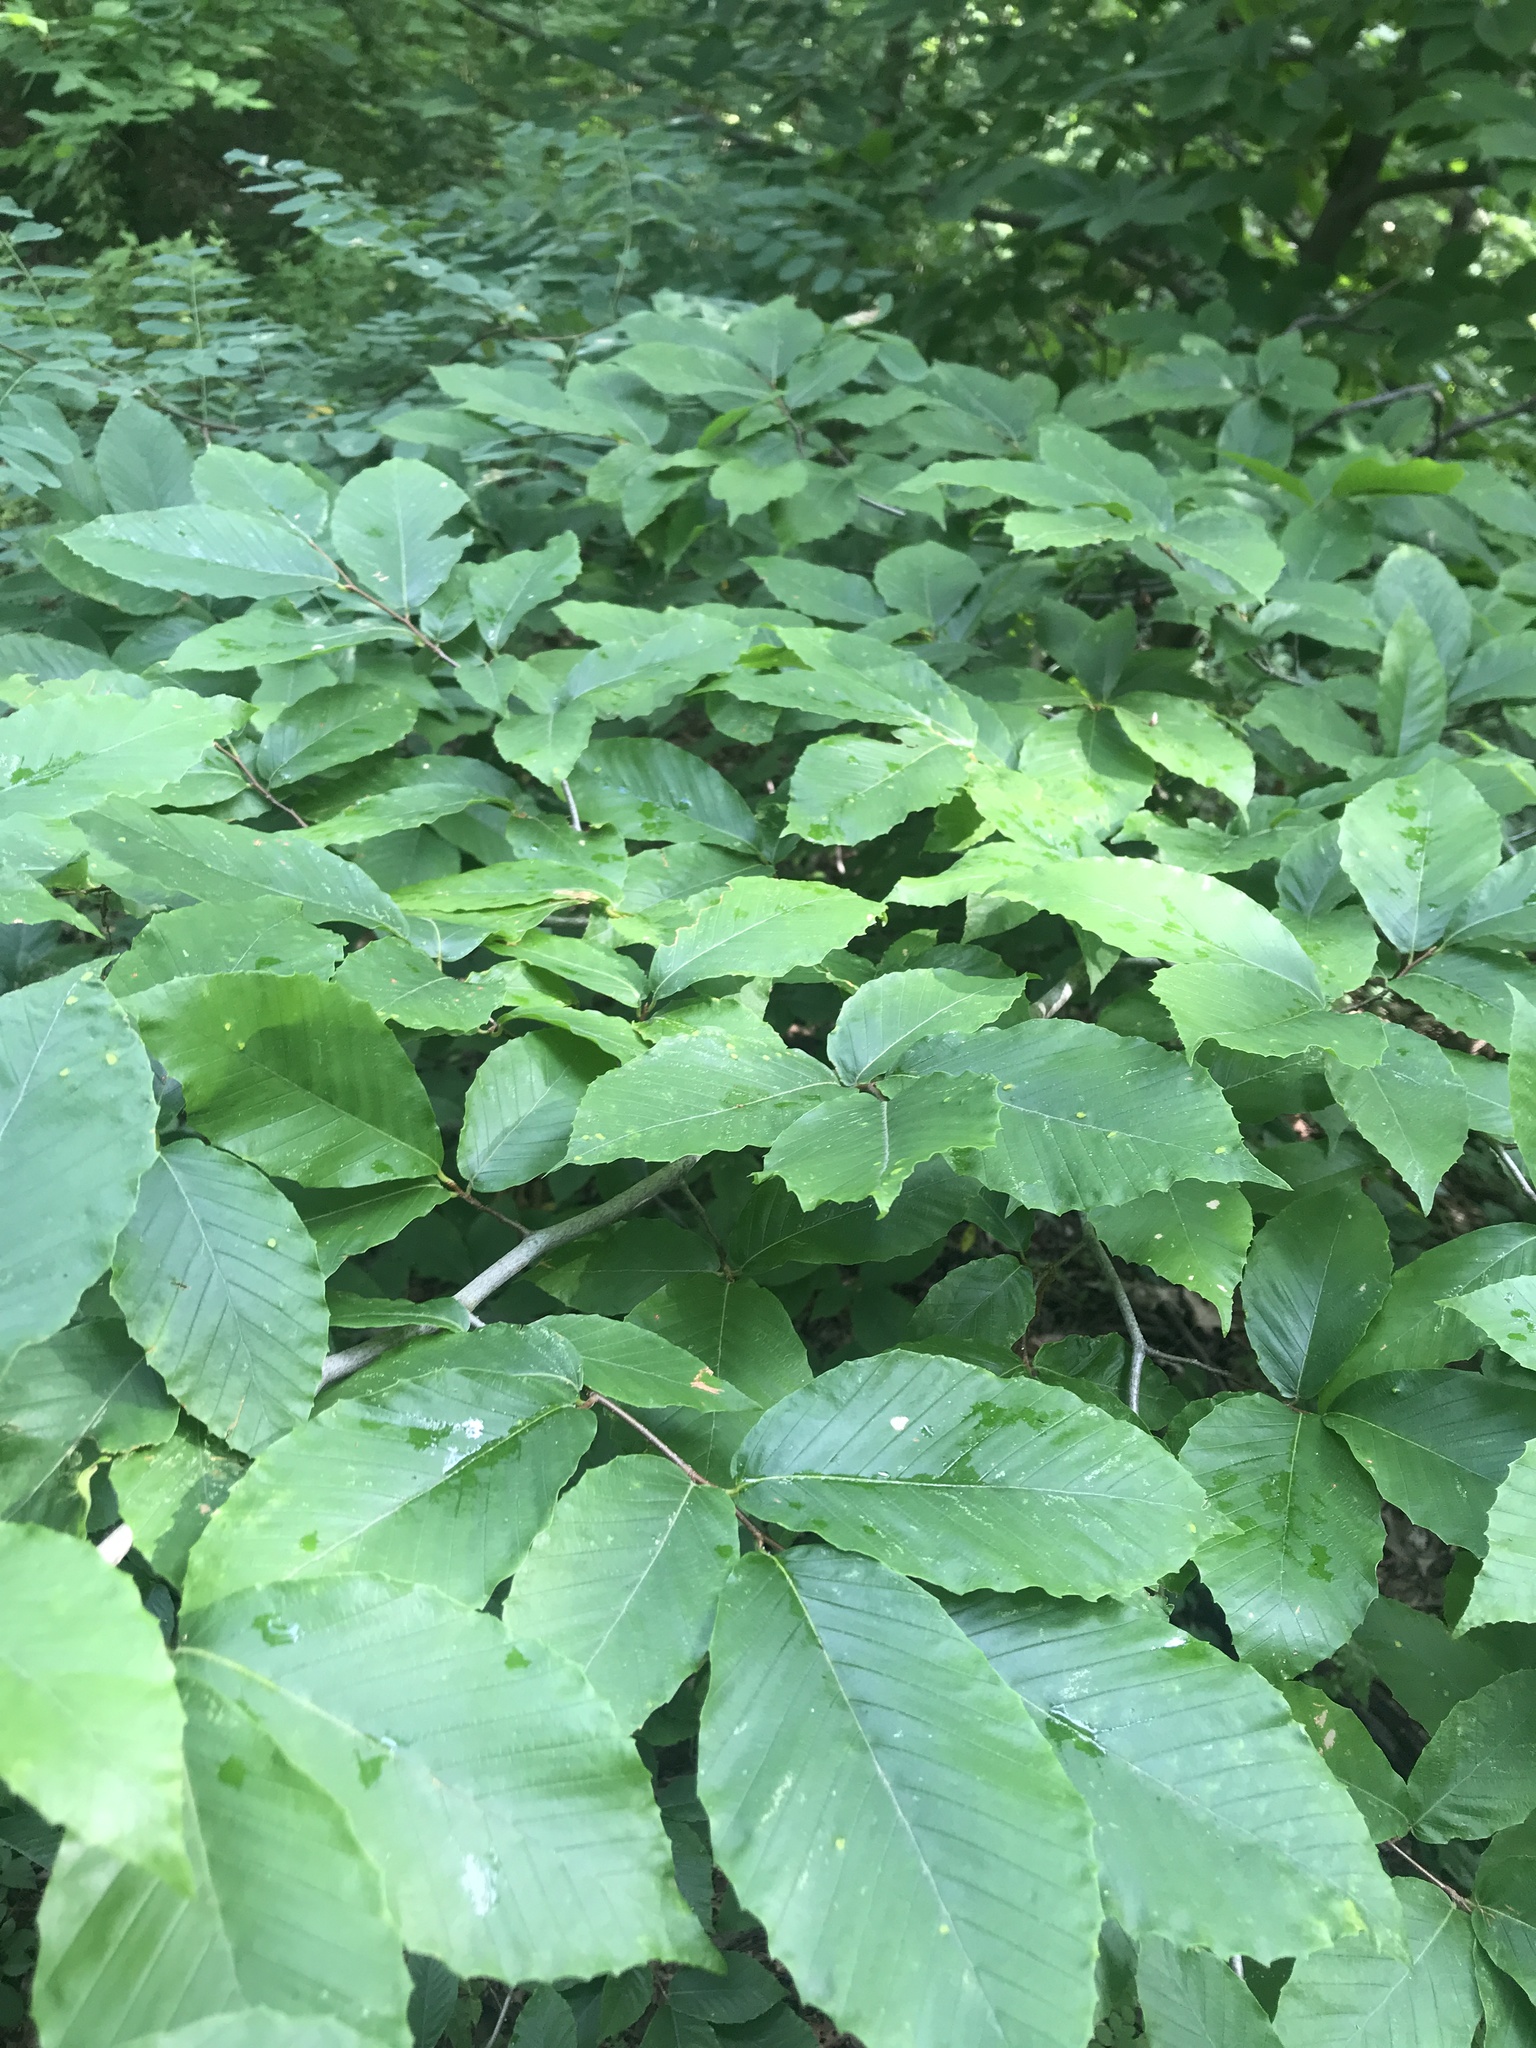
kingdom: Plantae
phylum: Tracheophyta
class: Magnoliopsida
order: Fagales
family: Fagaceae
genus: Fagus
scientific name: Fagus grandifolia
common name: American beech
